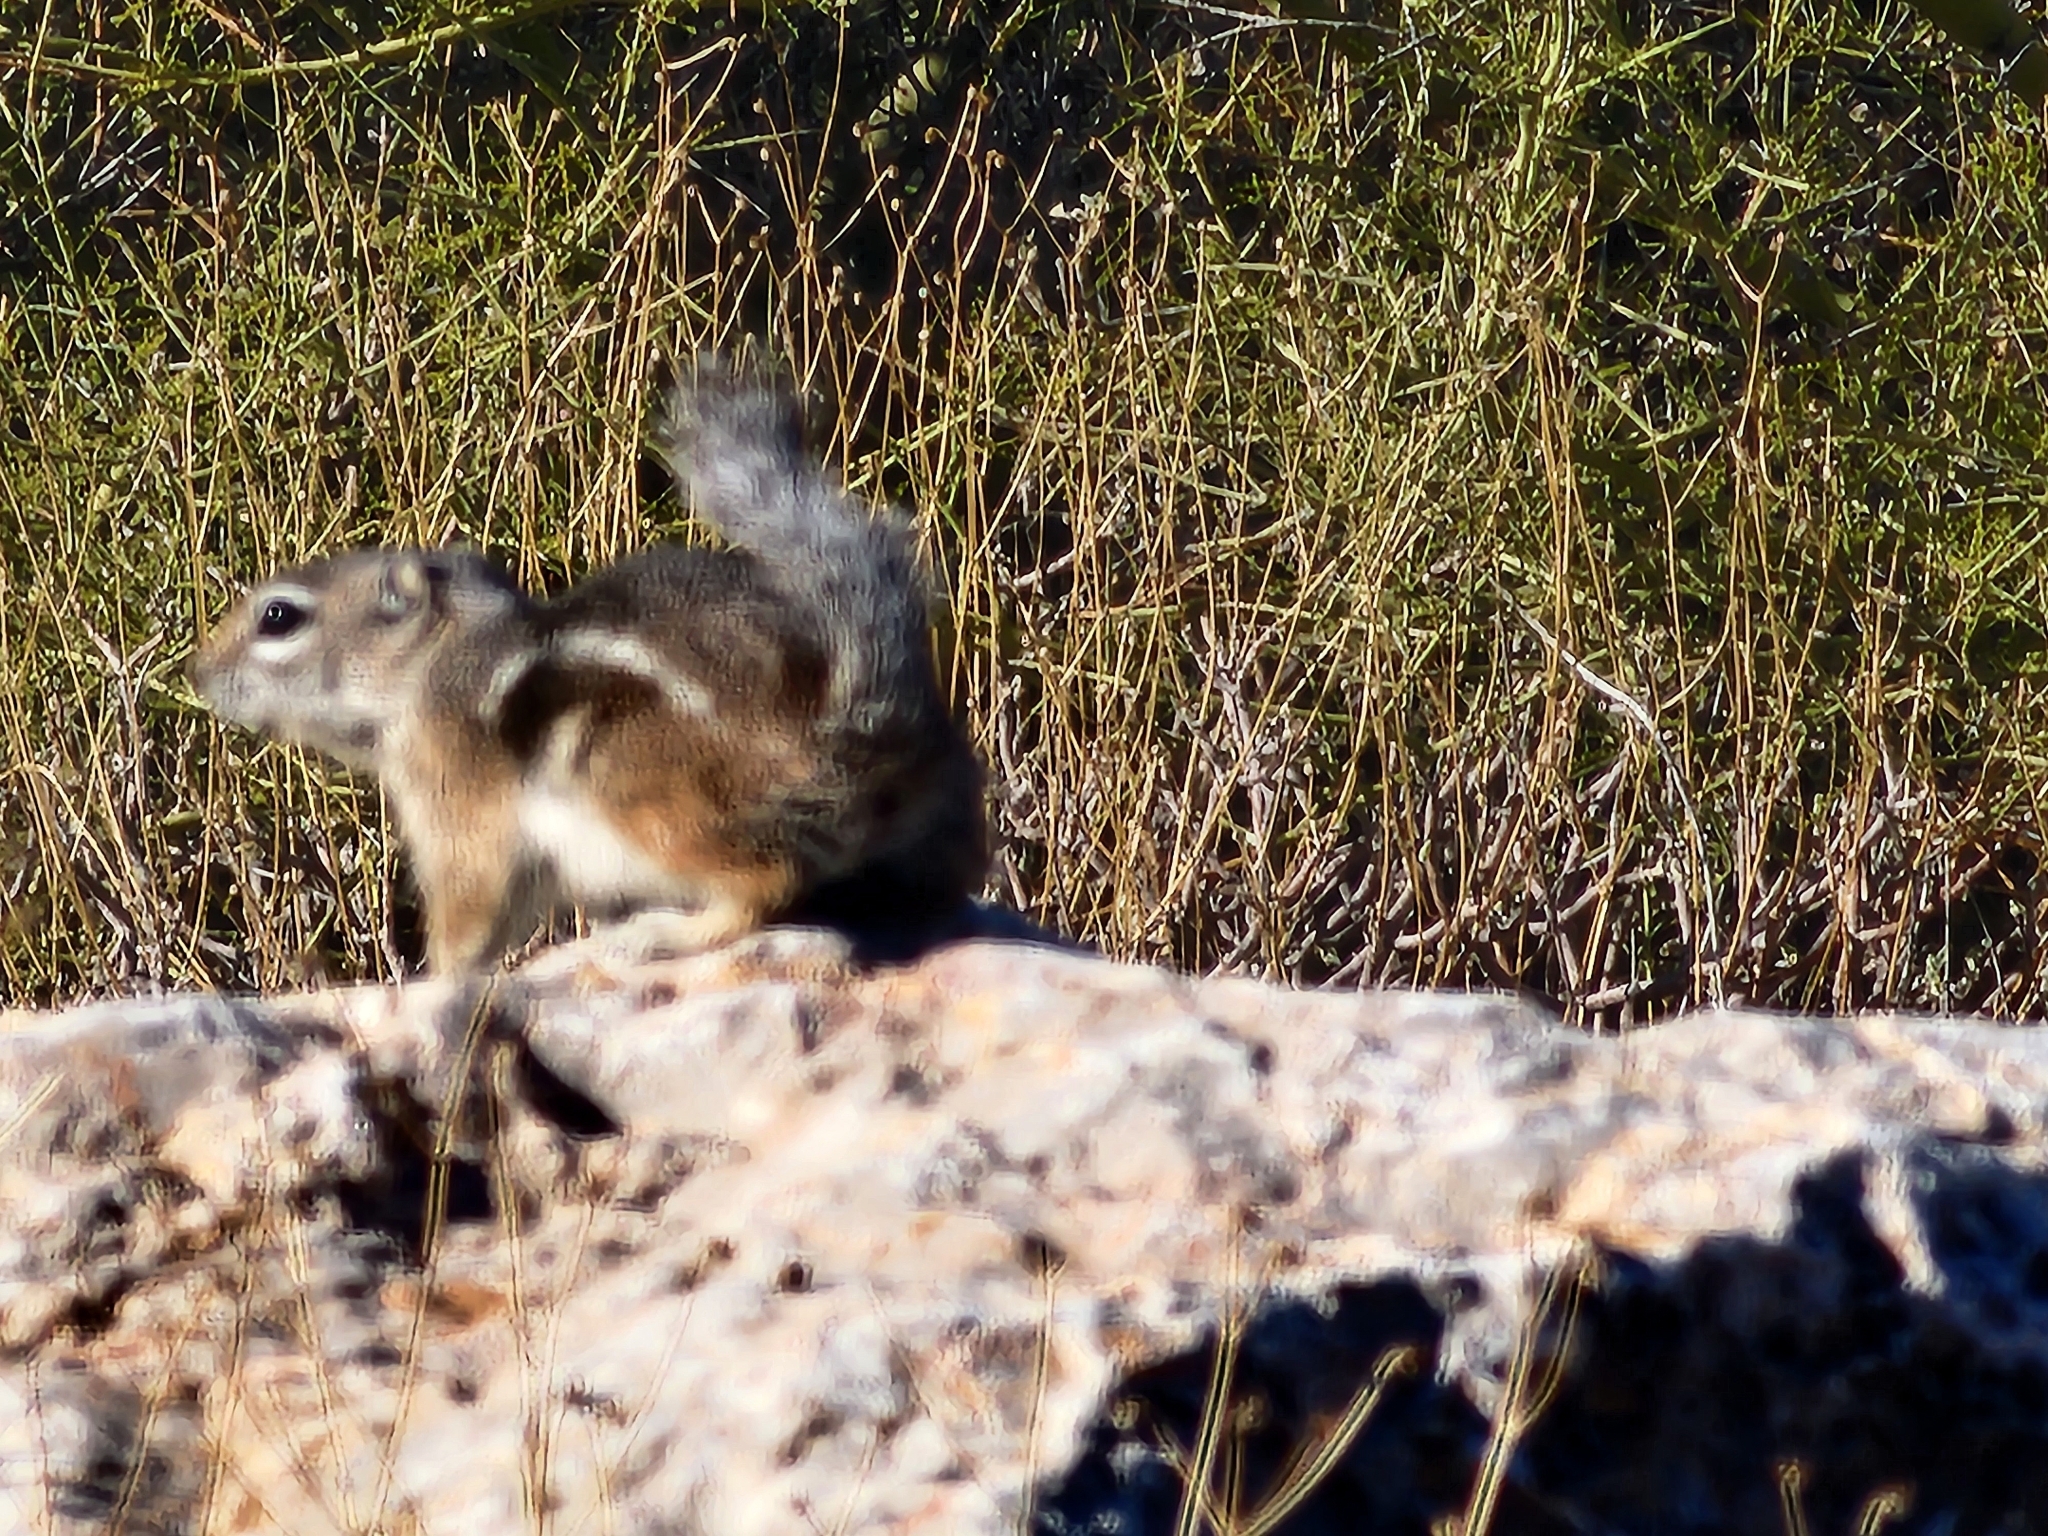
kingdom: Animalia
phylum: Chordata
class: Mammalia
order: Rodentia
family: Sciuridae
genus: Ammospermophilus
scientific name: Ammospermophilus harrisii
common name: Harris's antelope squirrel
